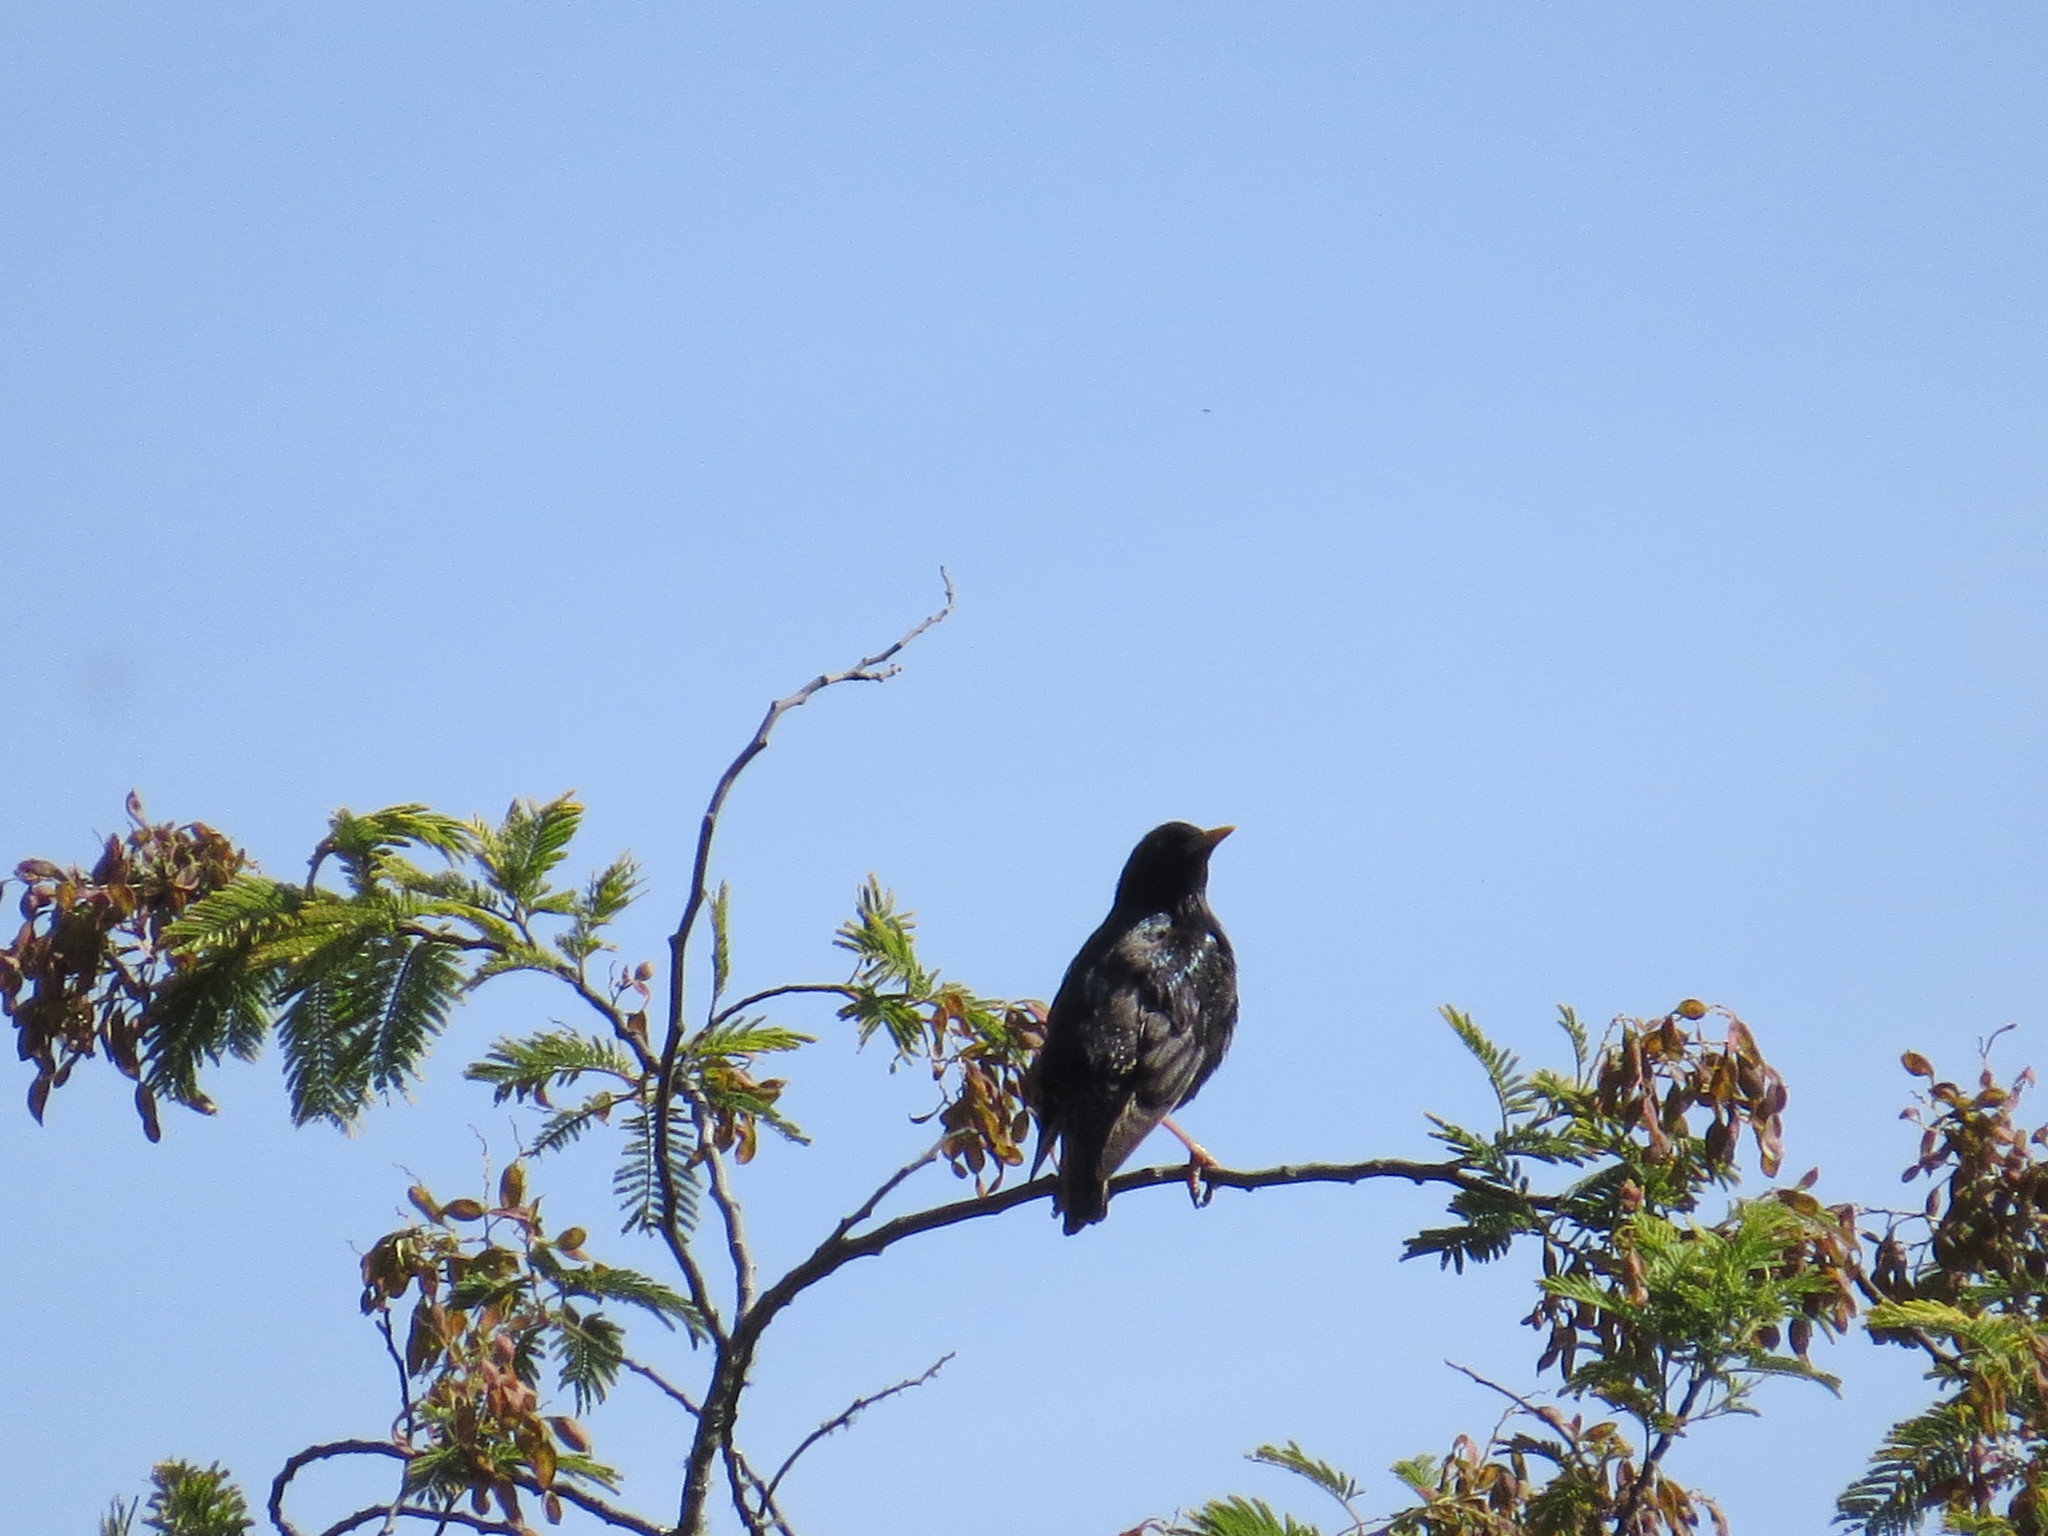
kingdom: Animalia
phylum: Chordata
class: Aves
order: Passeriformes
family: Sturnidae
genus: Sturnus
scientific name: Sturnus vulgaris
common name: Common starling
